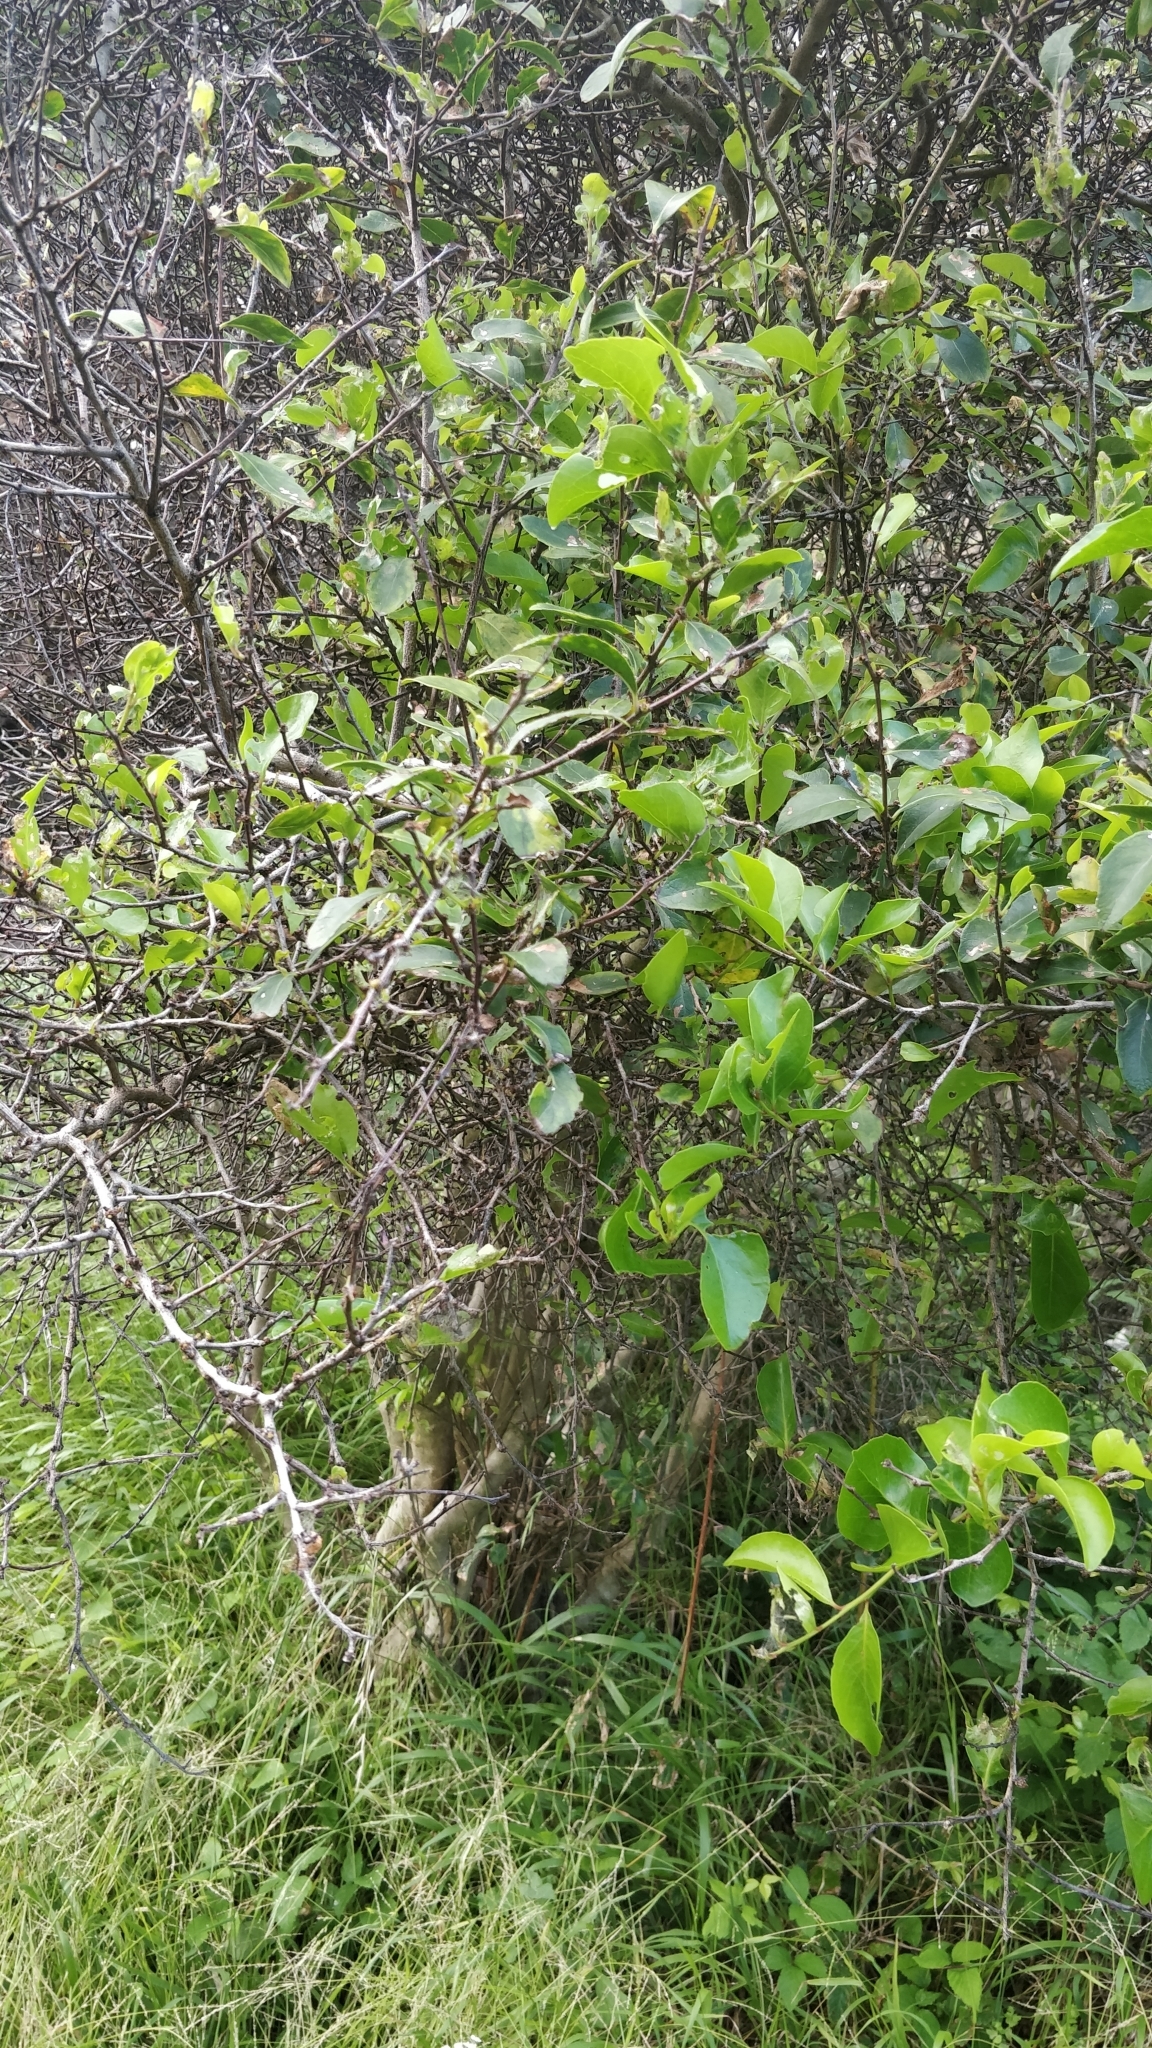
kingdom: Plantae
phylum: Tracheophyta
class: Magnoliopsida
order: Celastrales
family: Celastraceae
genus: Gymnosporia
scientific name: Gymnosporia dryandri
